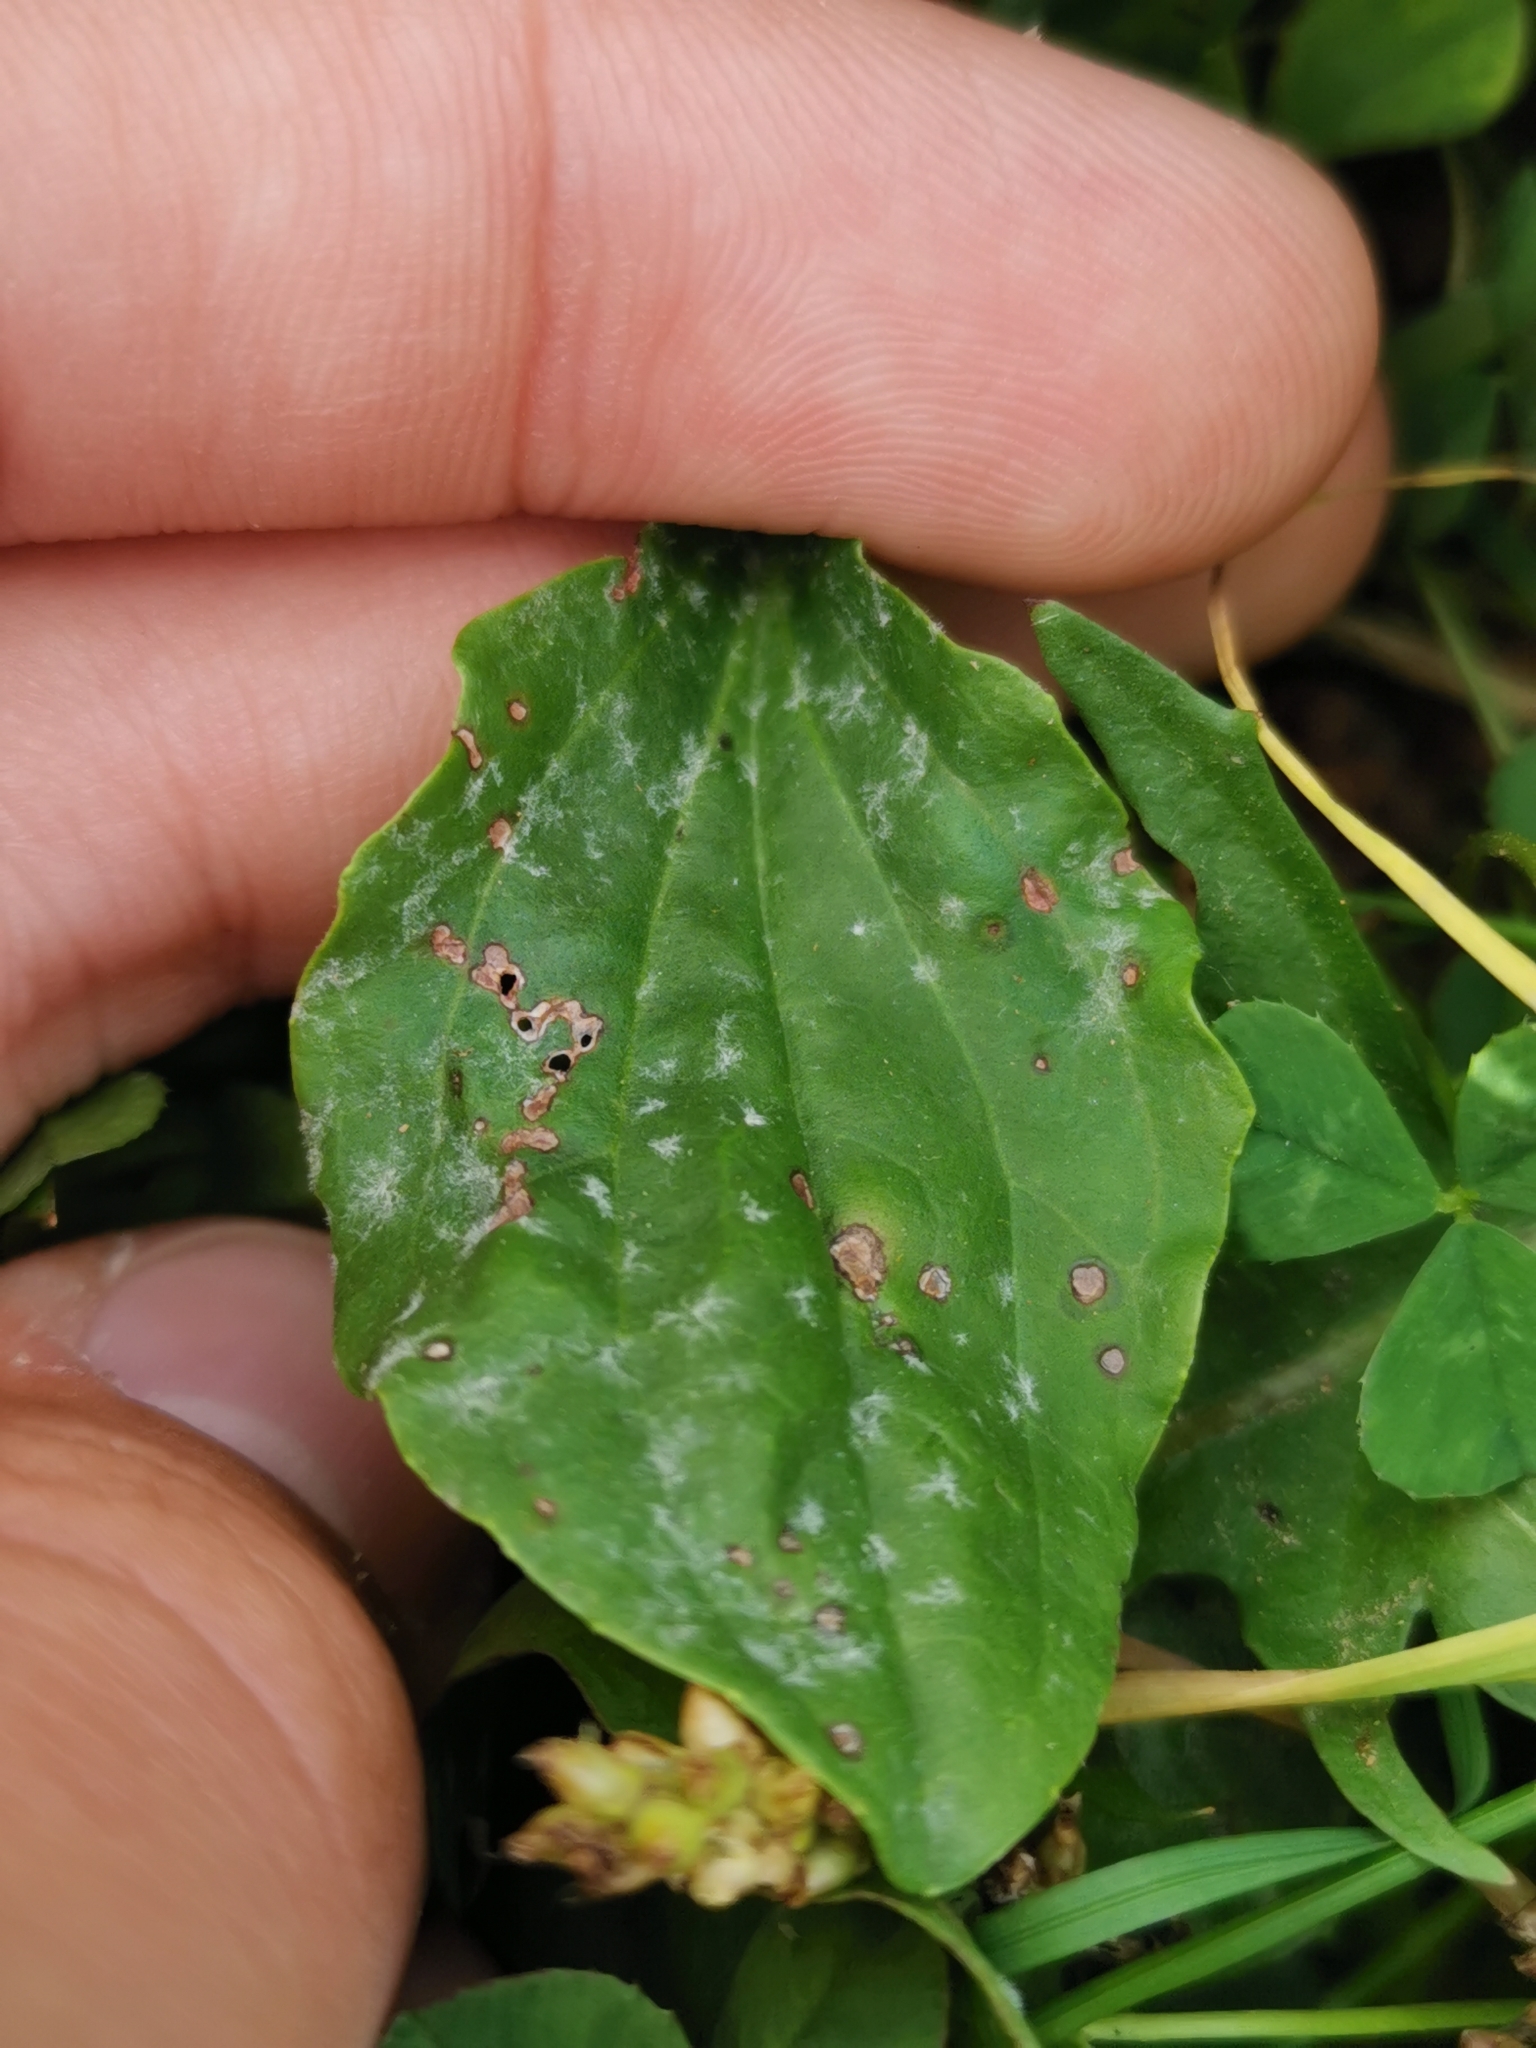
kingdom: Fungi
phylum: Ascomycota
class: Leotiomycetes
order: Helotiales
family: Erysiphaceae
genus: Golovinomyces
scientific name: Golovinomyces sordidus
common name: Plantain mildew
